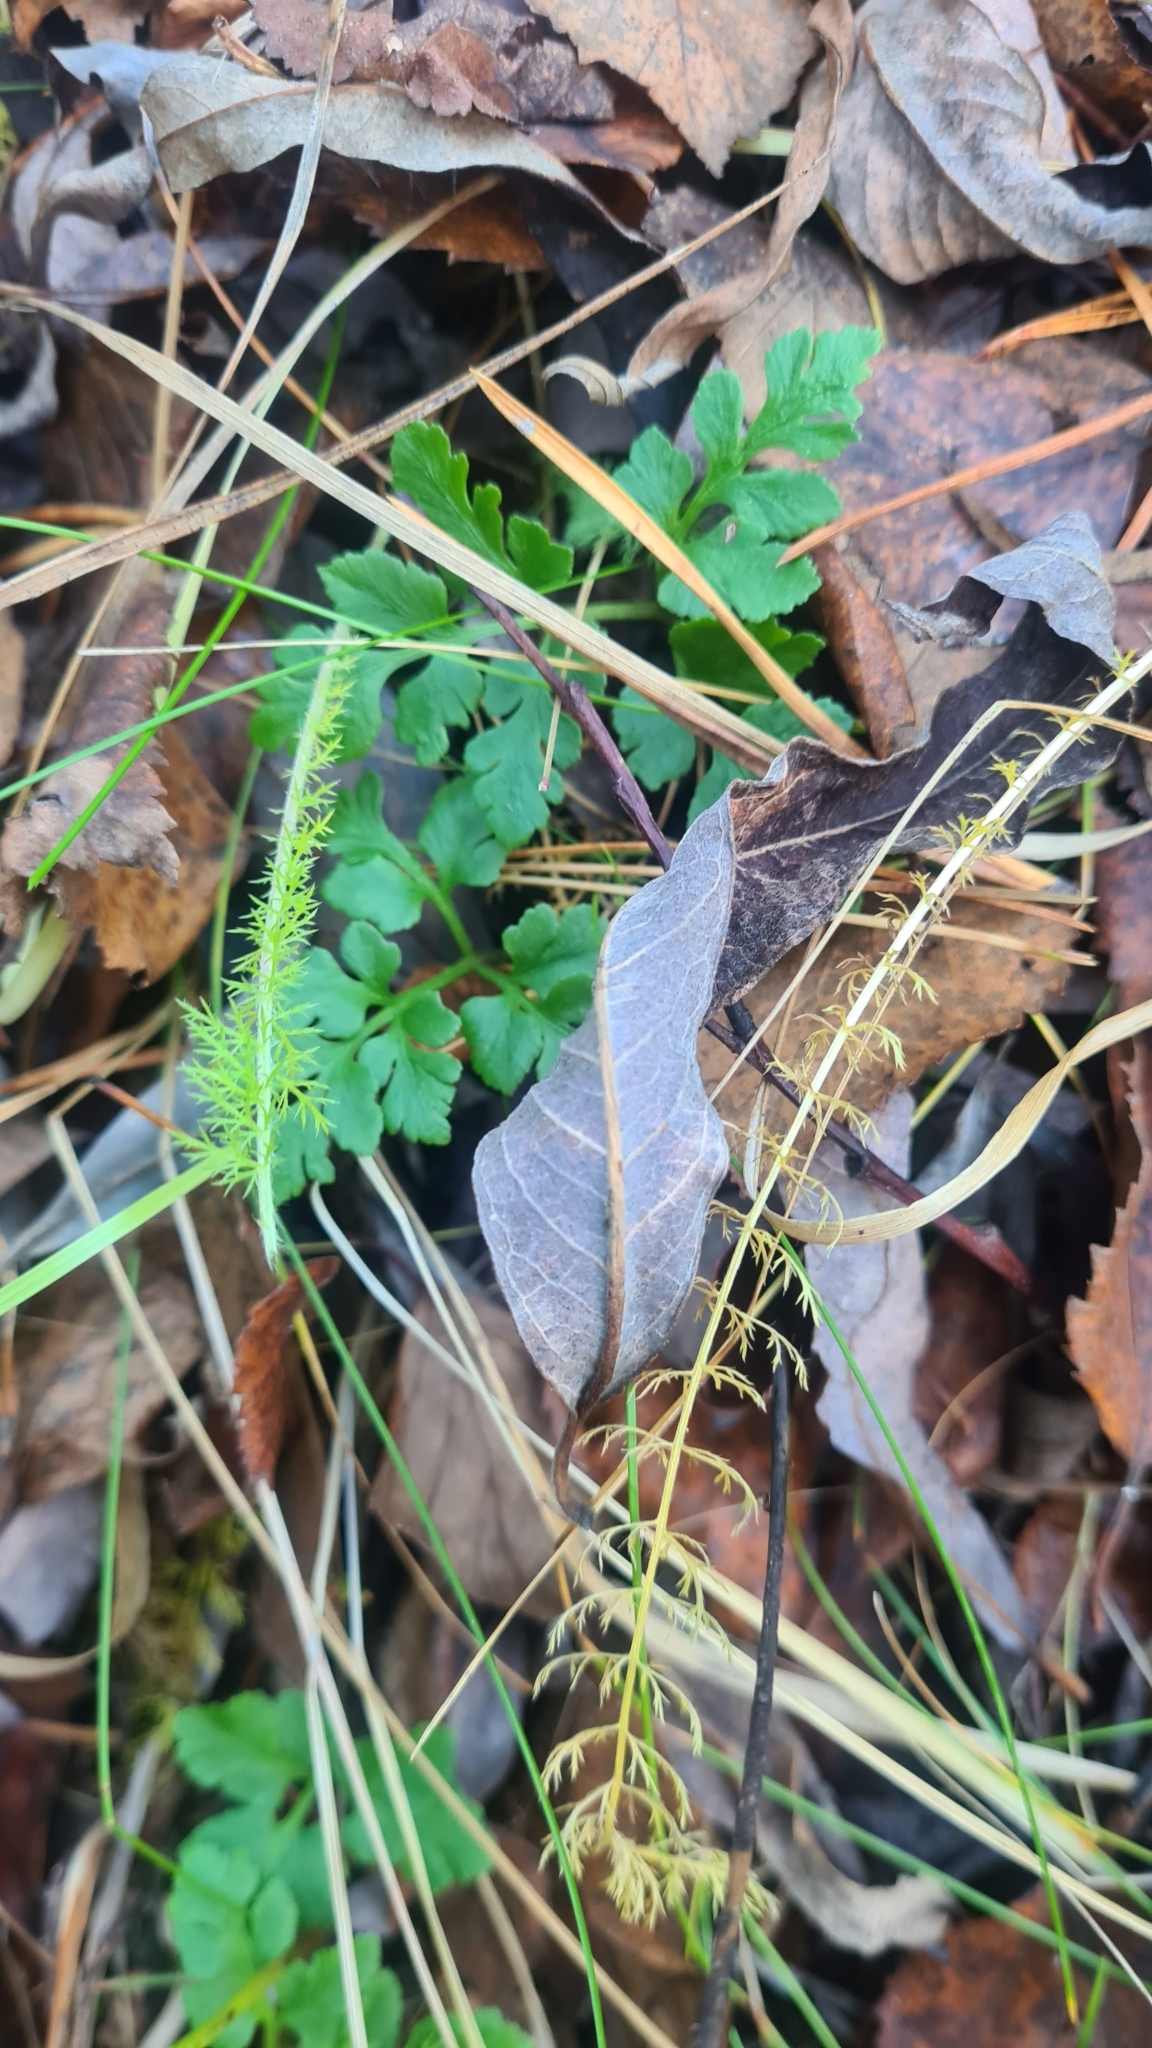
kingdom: Plantae
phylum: Tracheophyta
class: Polypodiopsida
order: Ophioglossales
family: Ophioglossaceae
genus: Sceptridium
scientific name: Sceptridium multifidum
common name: Leathery grape fern
